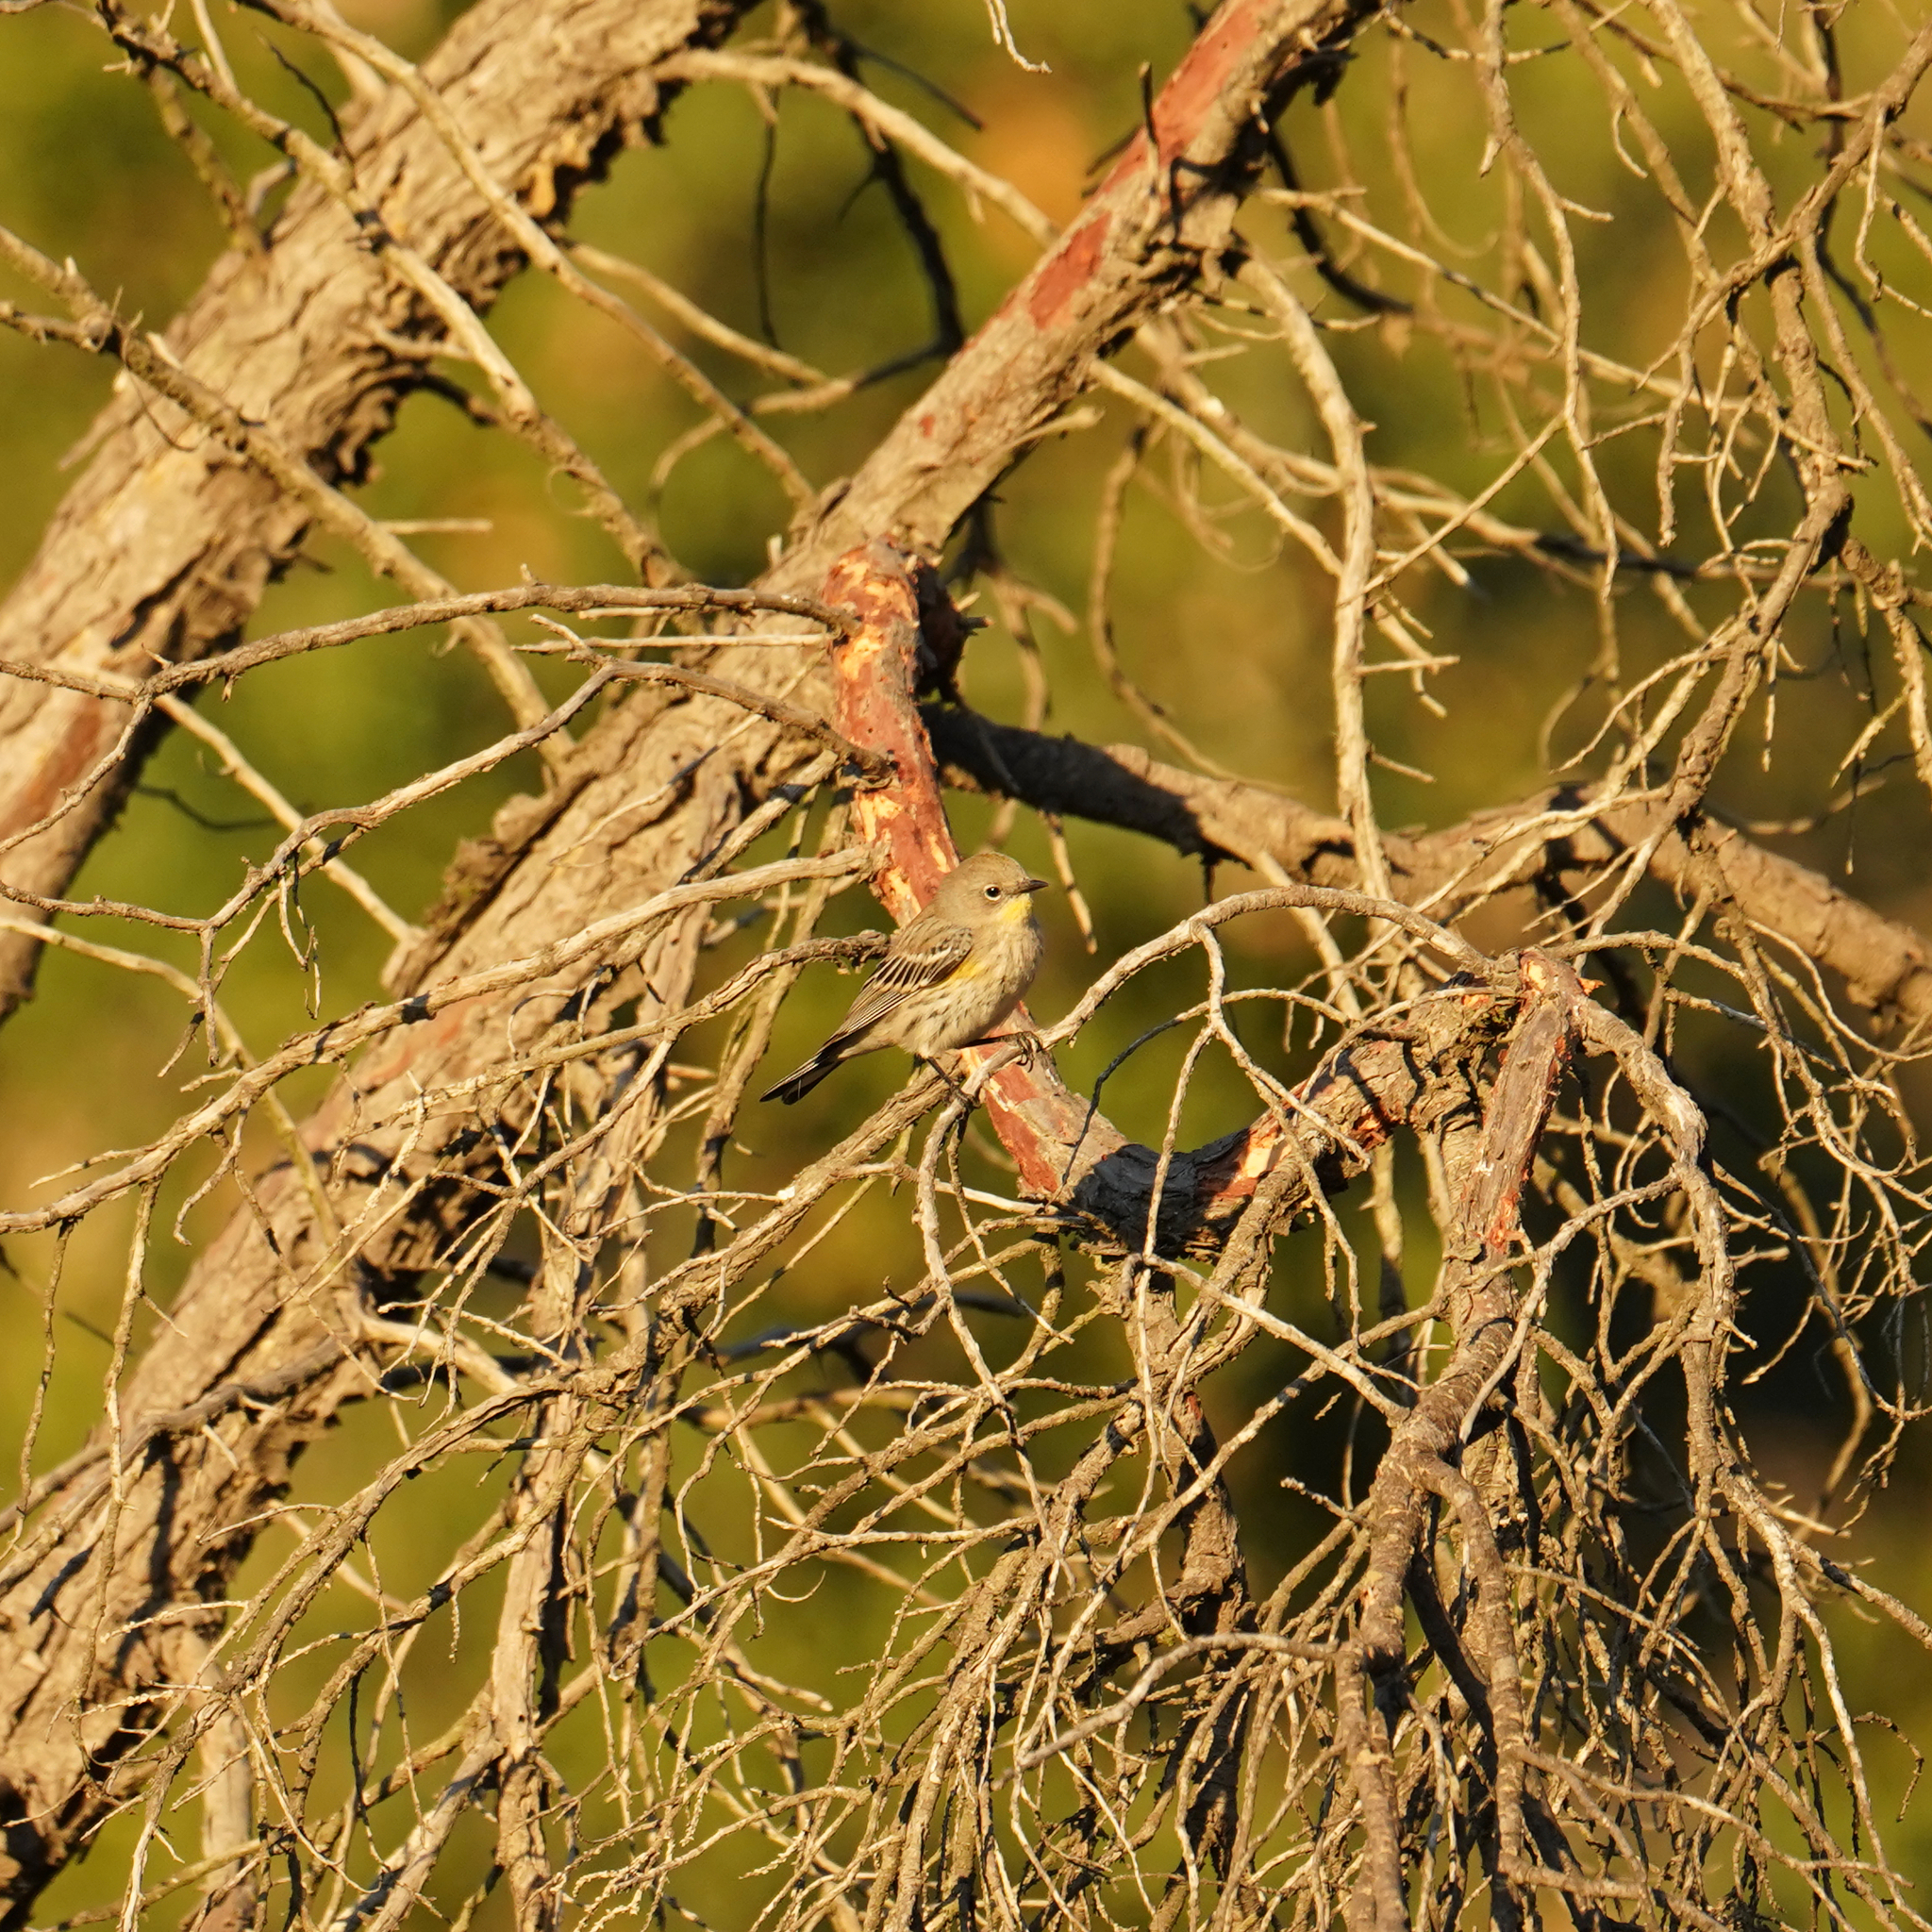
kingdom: Animalia
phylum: Chordata
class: Aves
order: Passeriformes
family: Parulidae
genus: Setophaga
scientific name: Setophaga coronata
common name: Myrtle warbler
